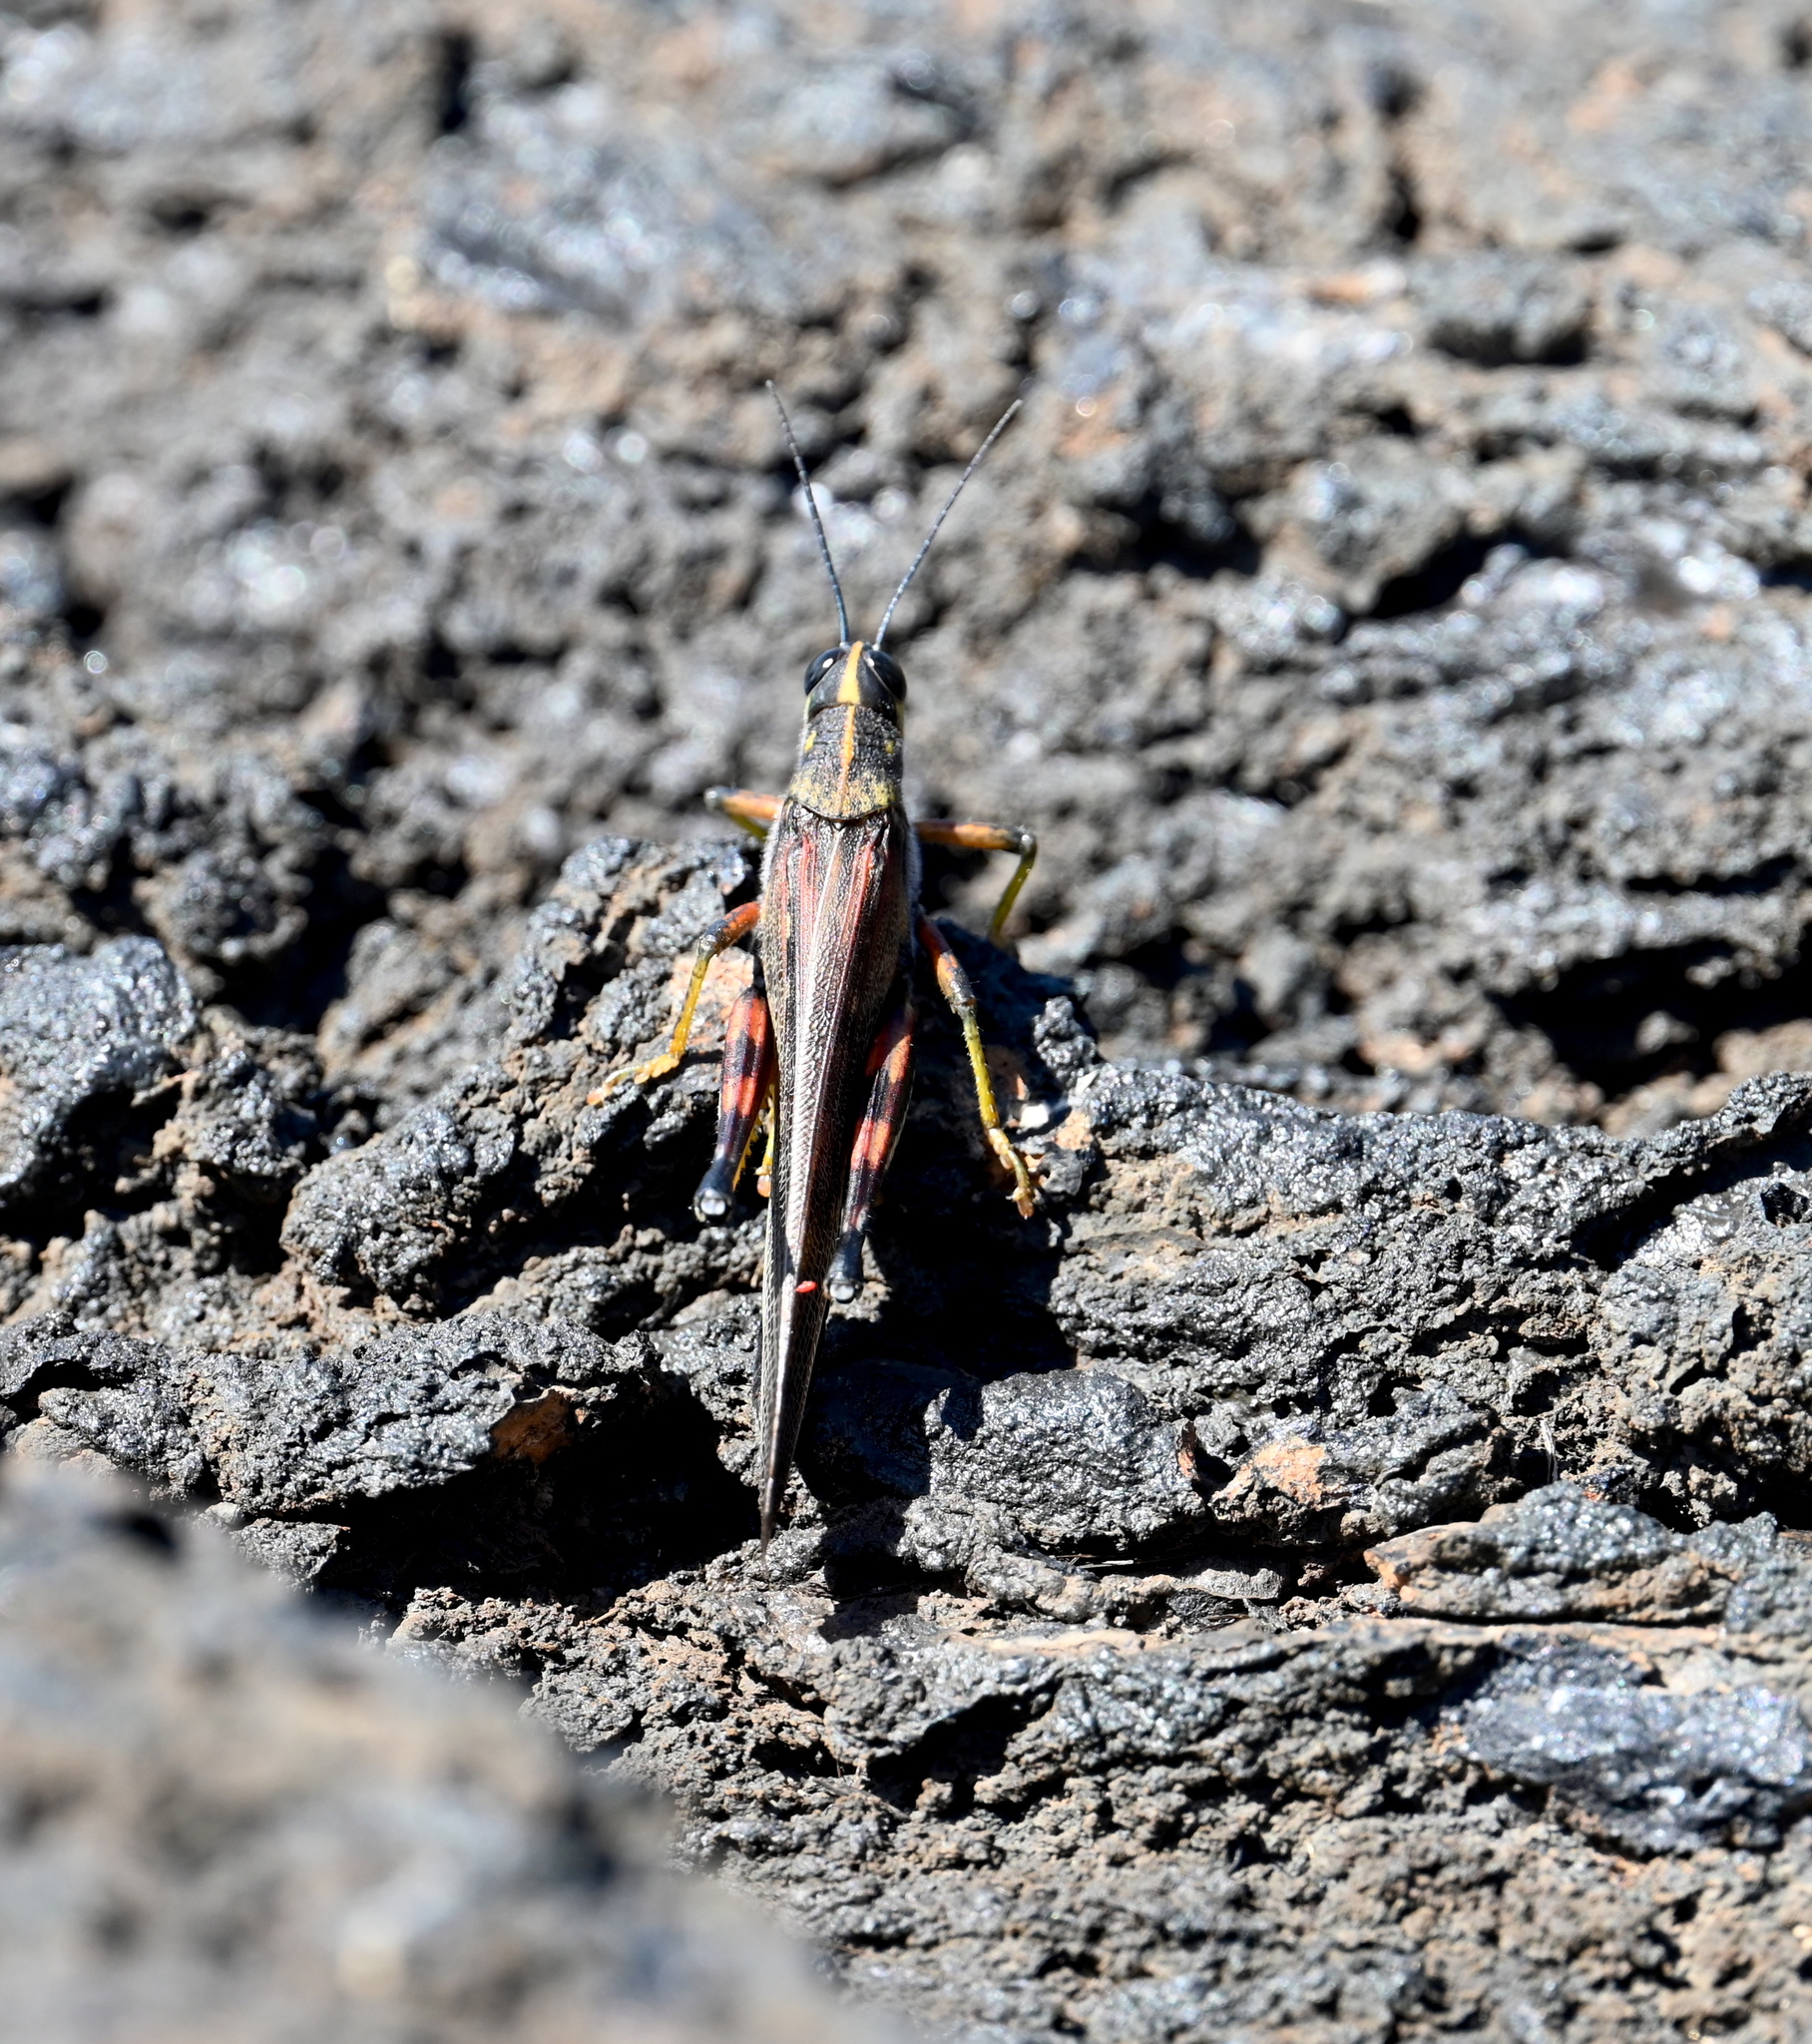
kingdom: Animalia
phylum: Arthropoda
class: Insecta
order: Orthoptera
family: Acrididae
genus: Schistocerca
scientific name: Schistocerca melanocera
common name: Large painted locust
